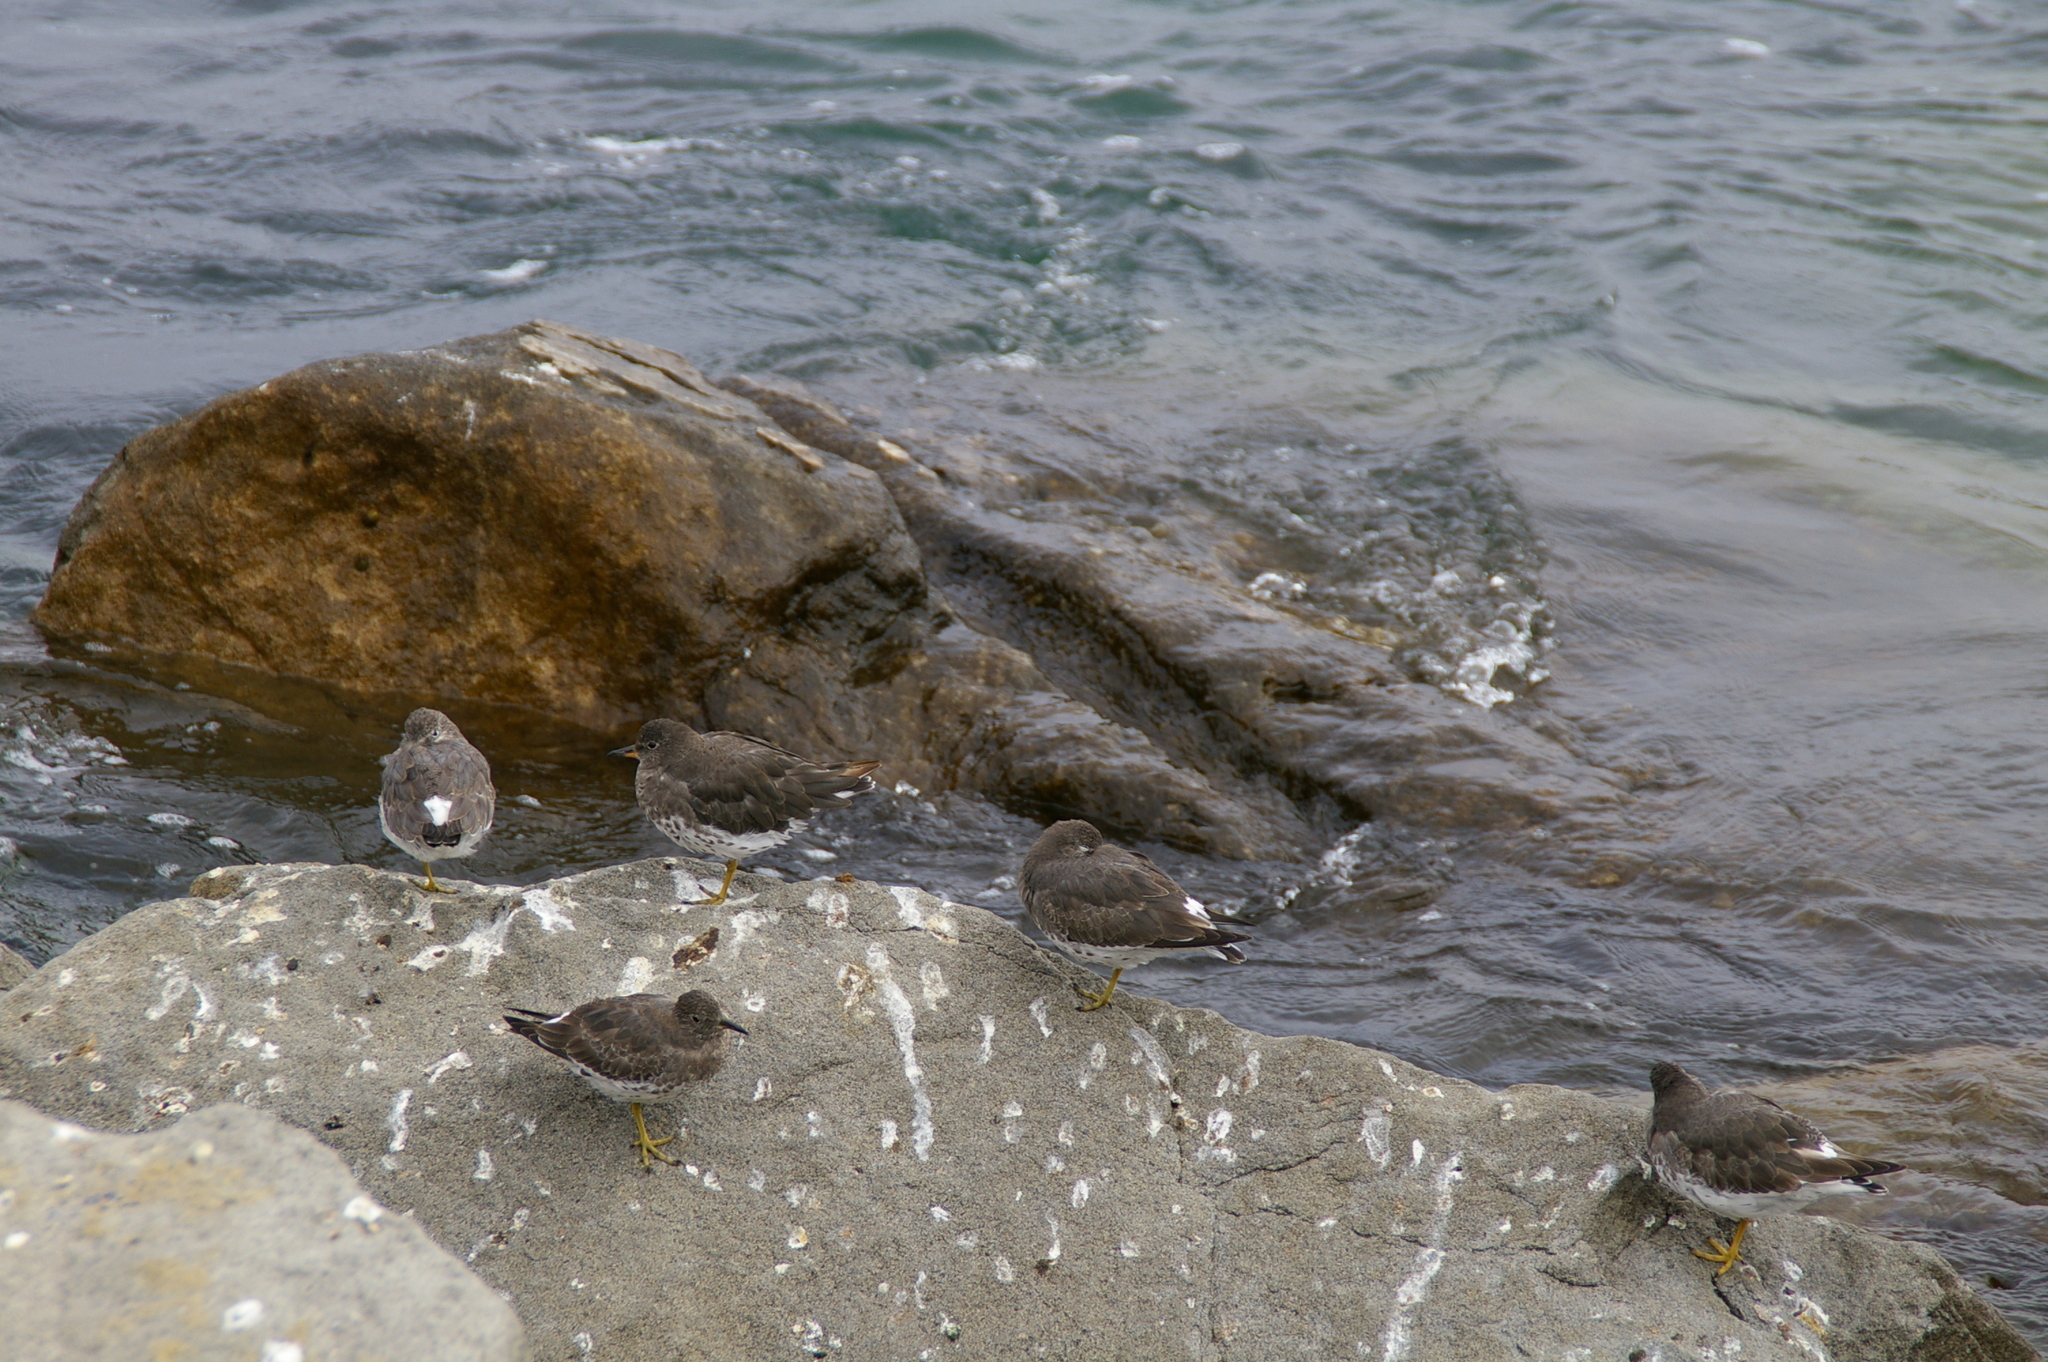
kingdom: Animalia
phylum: Chordata
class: Aves
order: Charadriiformes
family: Scolopacidae
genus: Calidris
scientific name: Calidris virgata
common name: Surfbird
